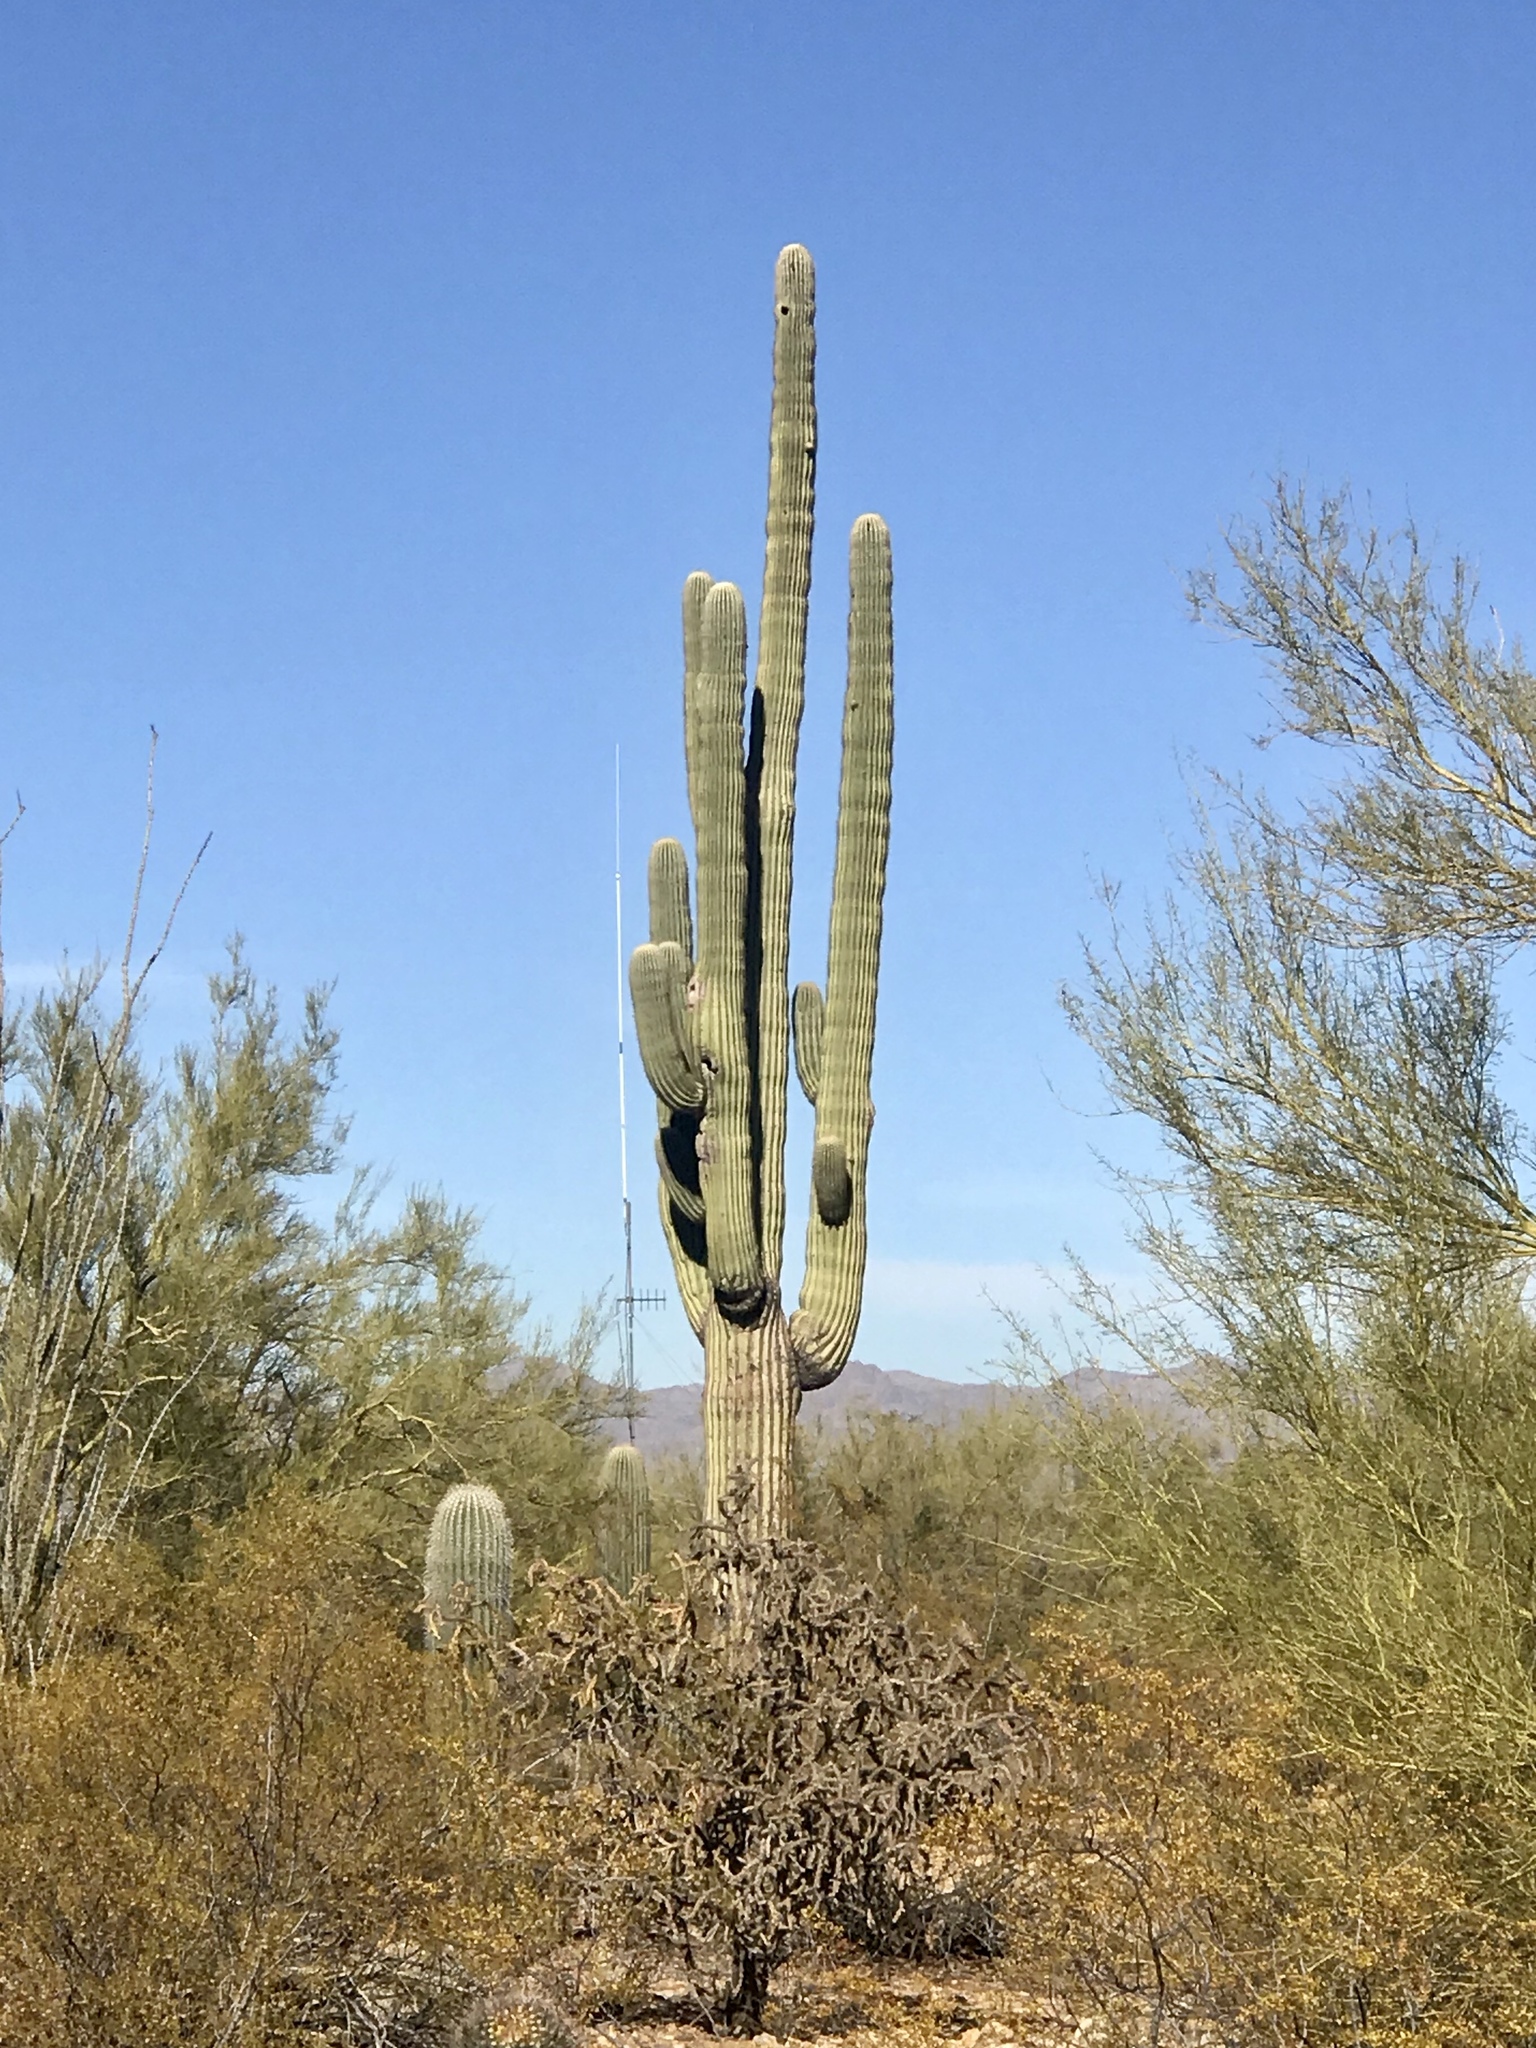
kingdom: Plantae
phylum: Tracheophyta
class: Magnoliopsida
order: Caryophyllales
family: Cactaceae
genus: Carnegiea
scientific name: Carnegiea gigantea
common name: Saguaro
